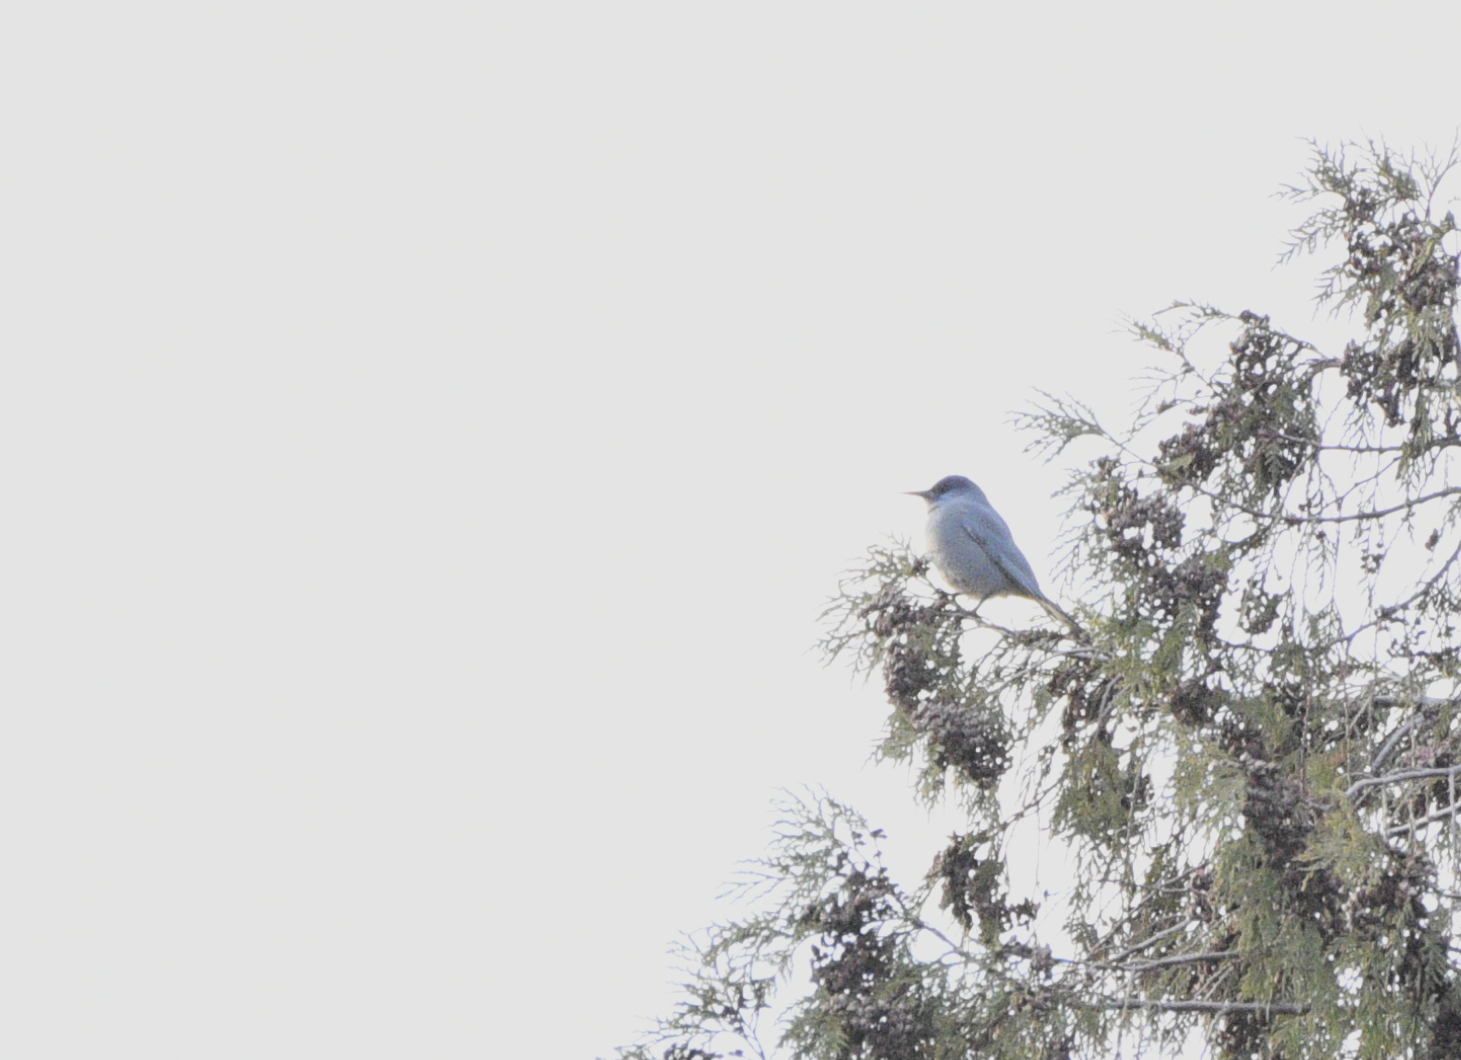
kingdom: Animalia
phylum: Chordata
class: Aves
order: Passeriformes
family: Corvidae
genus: Gymnorhinus
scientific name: Gymnorhinus cyanocephalus
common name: Pinyon jay
